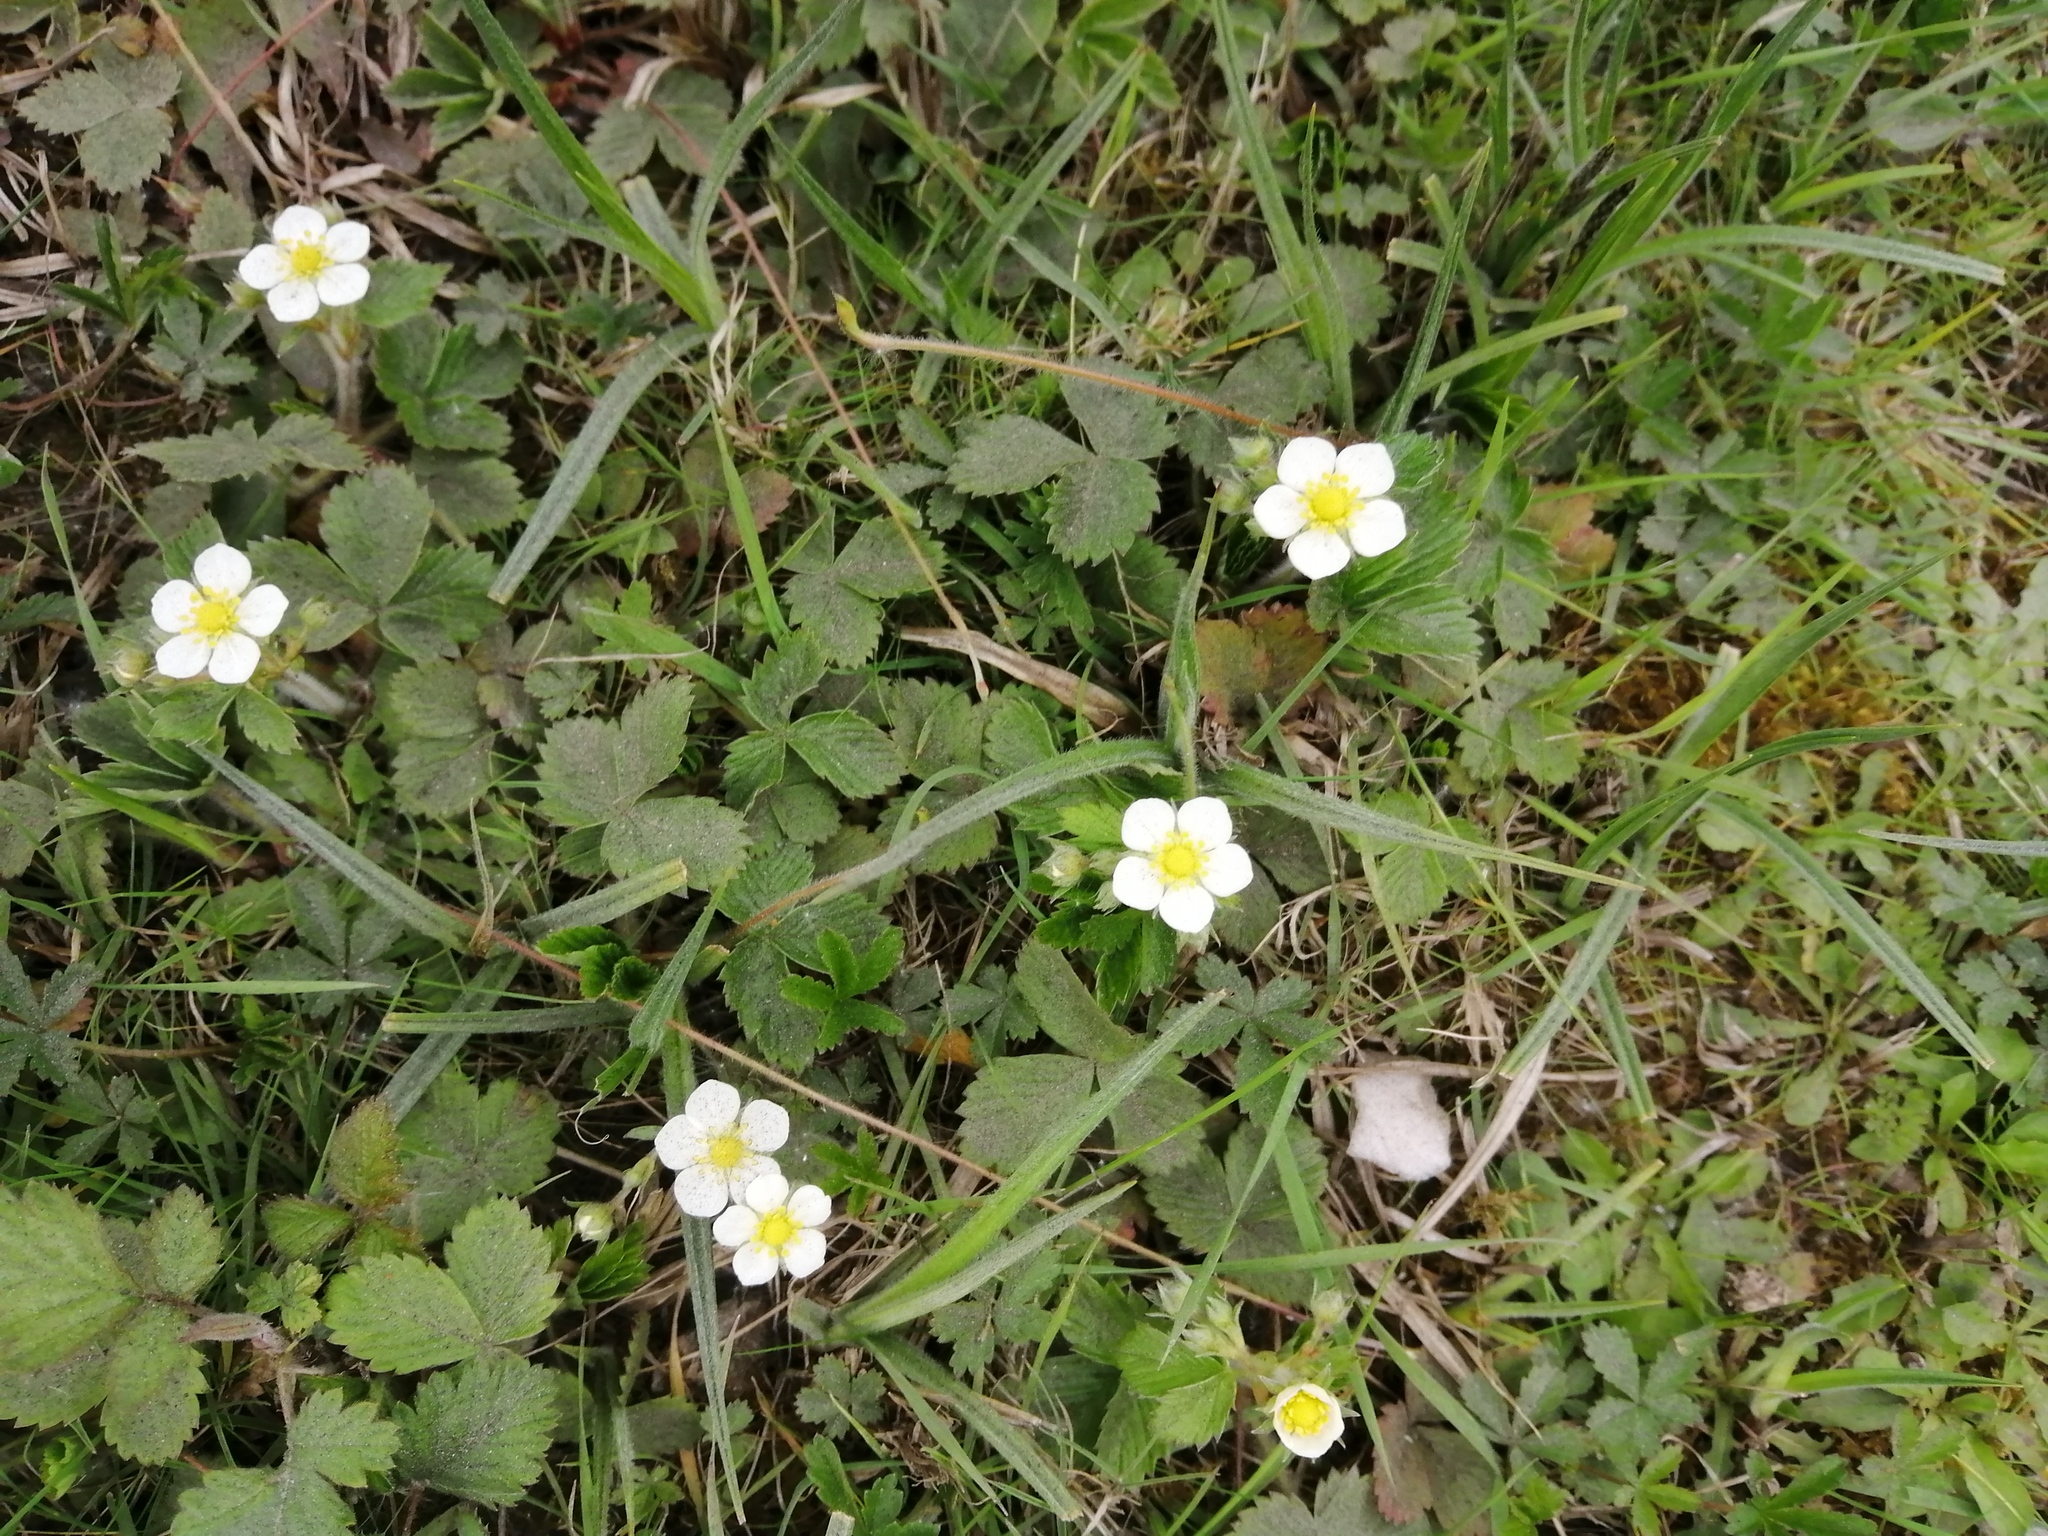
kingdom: Plantae
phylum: Tracheophyta
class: Magnoliopsida
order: Rosales
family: Rosaceae
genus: Potentilla
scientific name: Potentilla sterilis
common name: Barren strawberry
